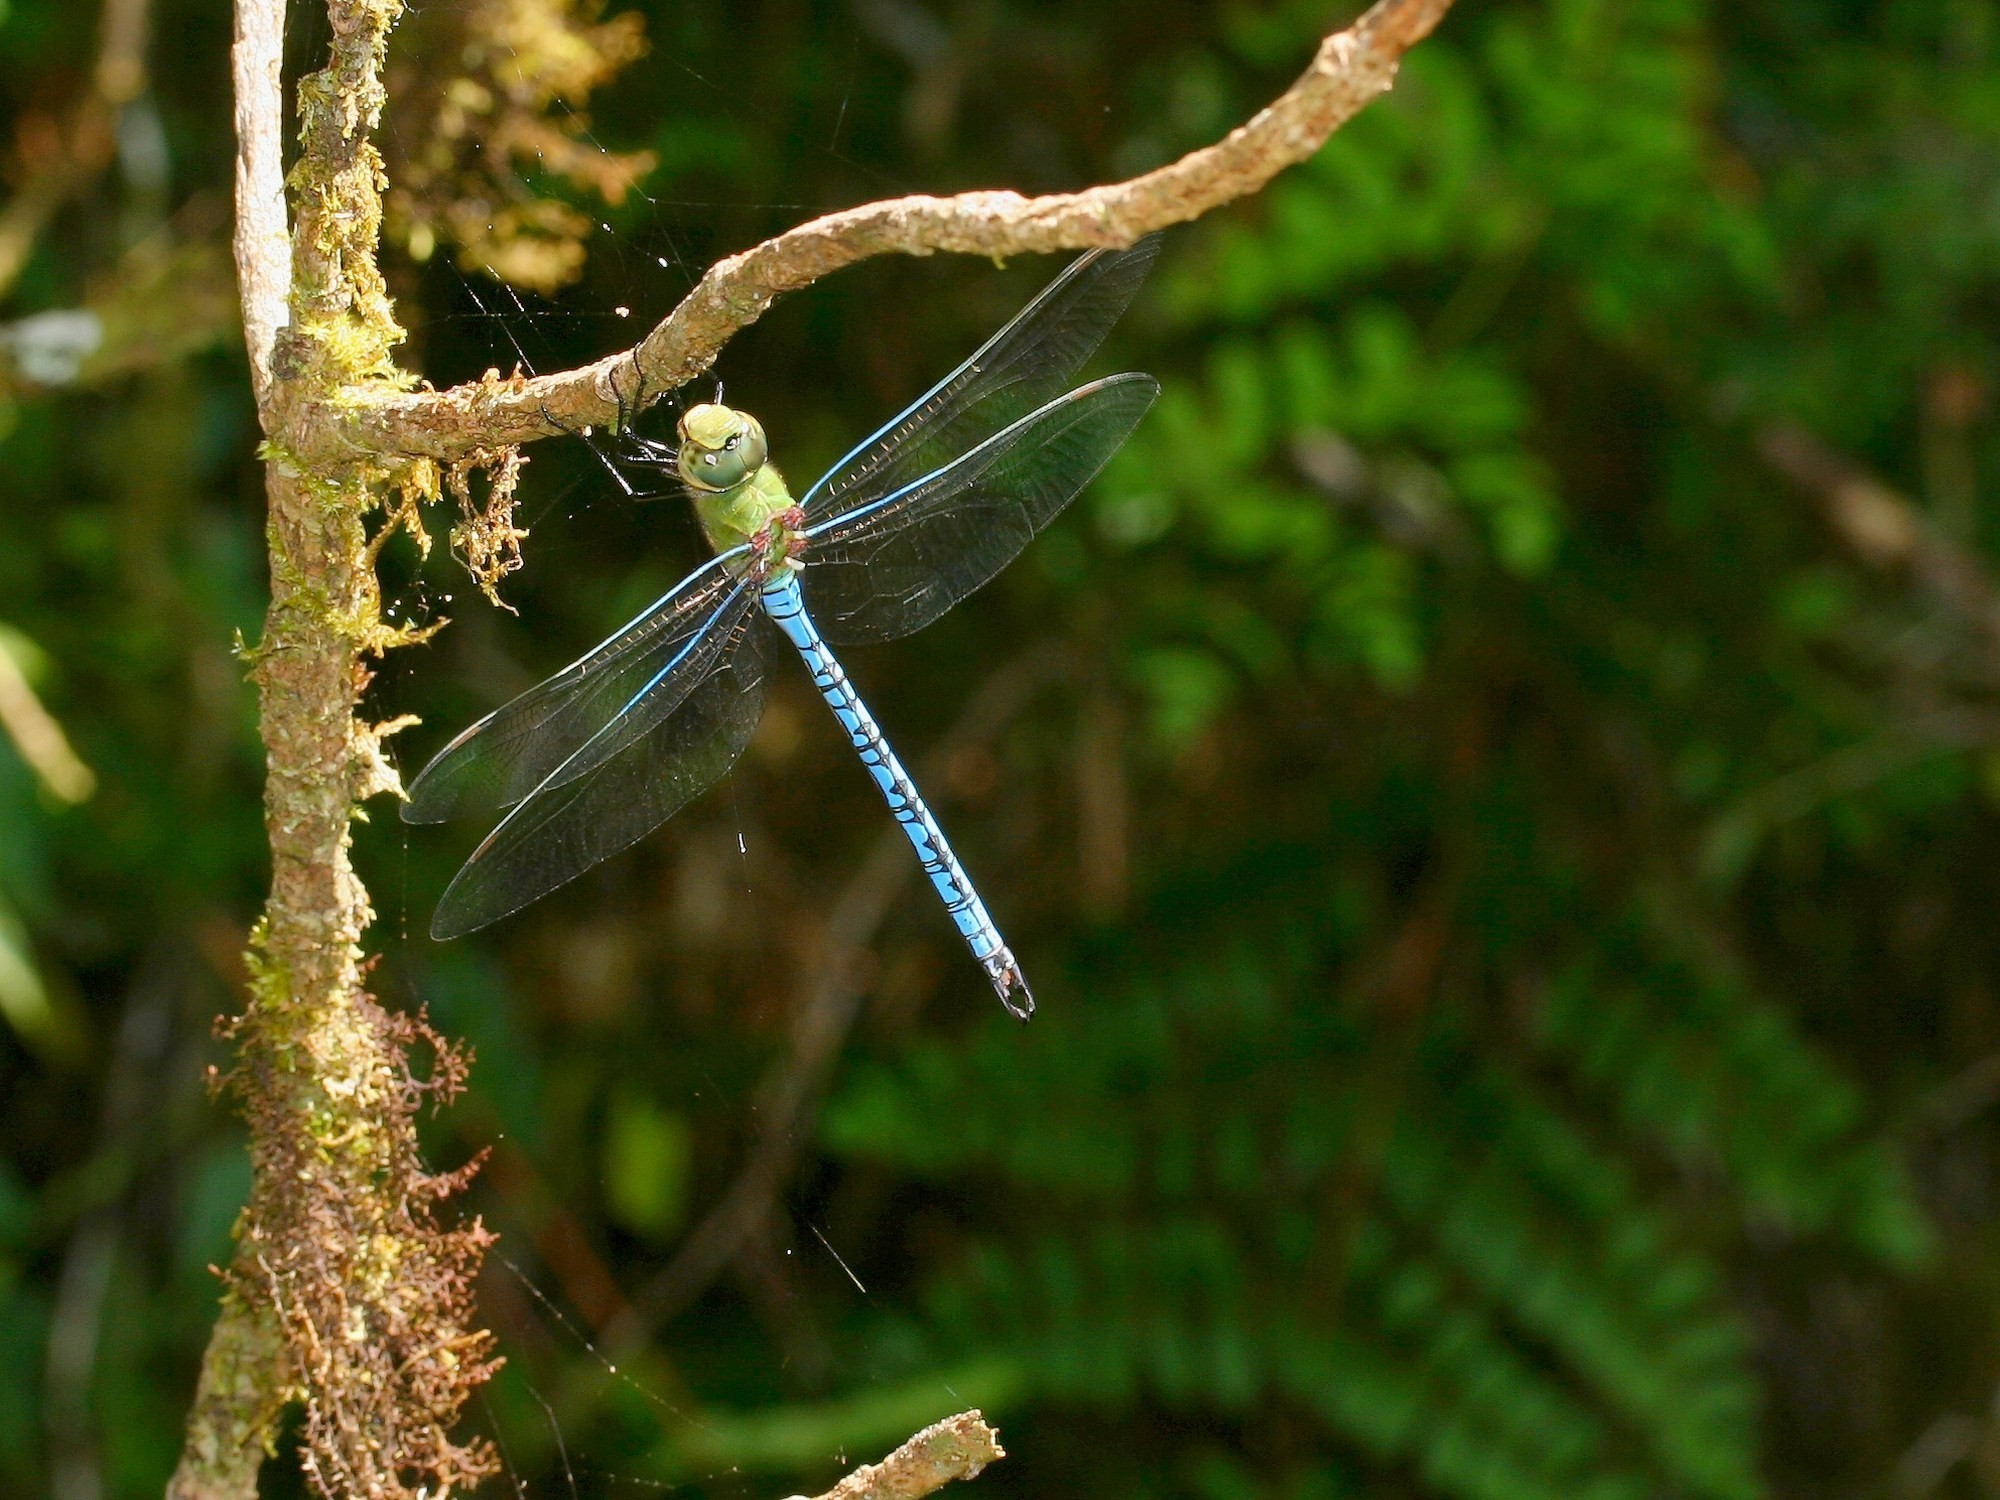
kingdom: Animalia
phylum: Arthropoda
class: Insecta
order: Odonata
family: Aeshnidae
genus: Anax
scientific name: Anax tumorifer
